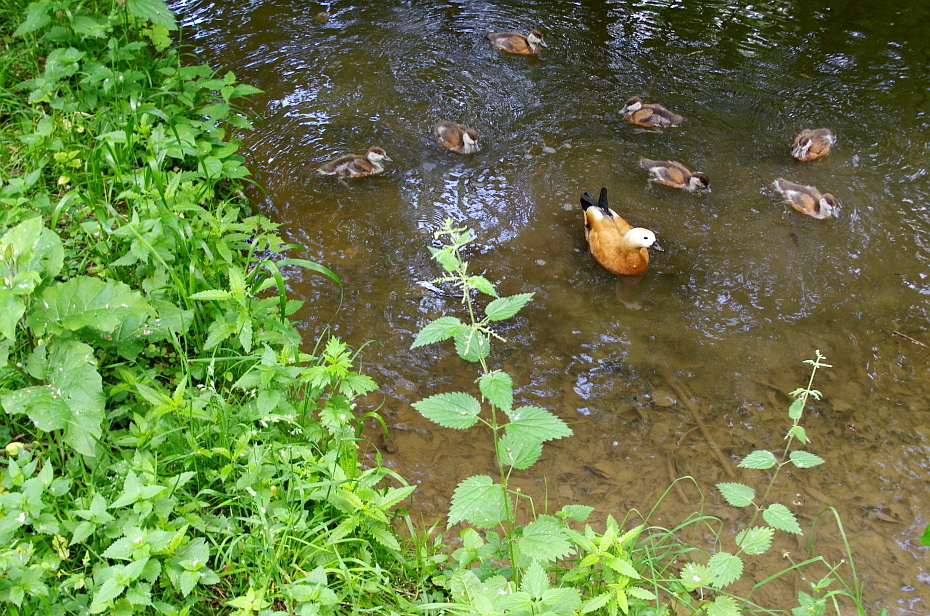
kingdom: Plantae
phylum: Tracheophyta
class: Magnoliopsida
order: Rosales
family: Urticaceae
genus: Urtica
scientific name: Urtica dioica
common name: Common nettle
